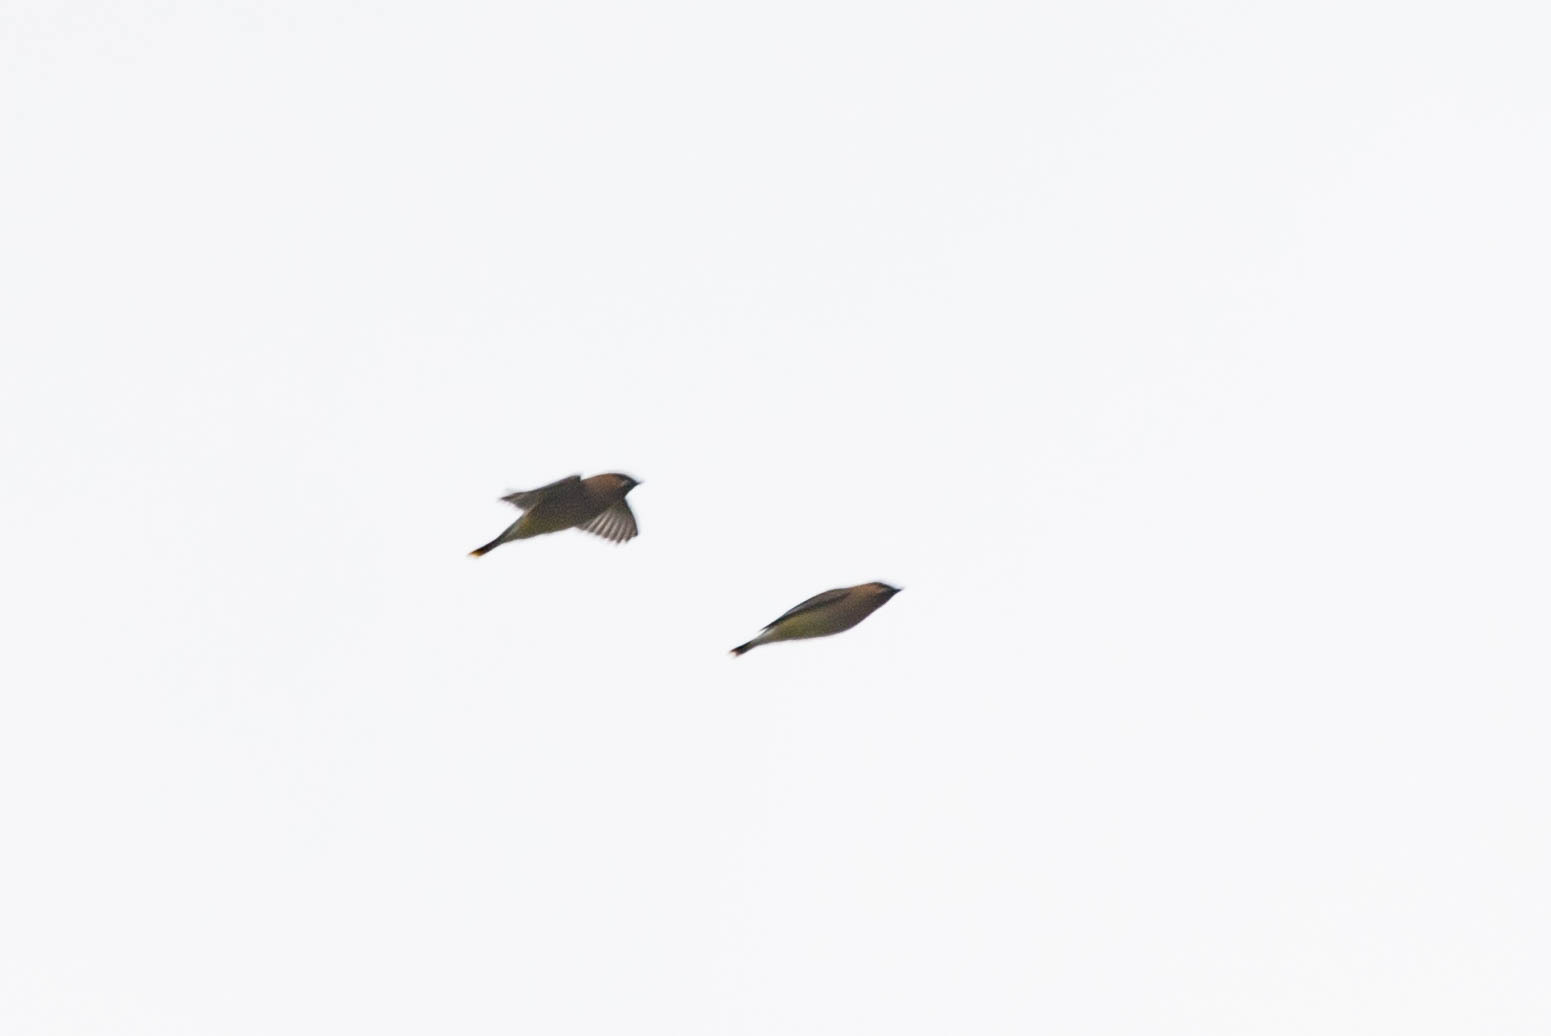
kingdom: Animalia
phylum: Chordata
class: Aves
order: Passeriformes
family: Bombycillidae
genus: Bombycilla
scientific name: Bombycilla cedrorum
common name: Cedar waxwing
